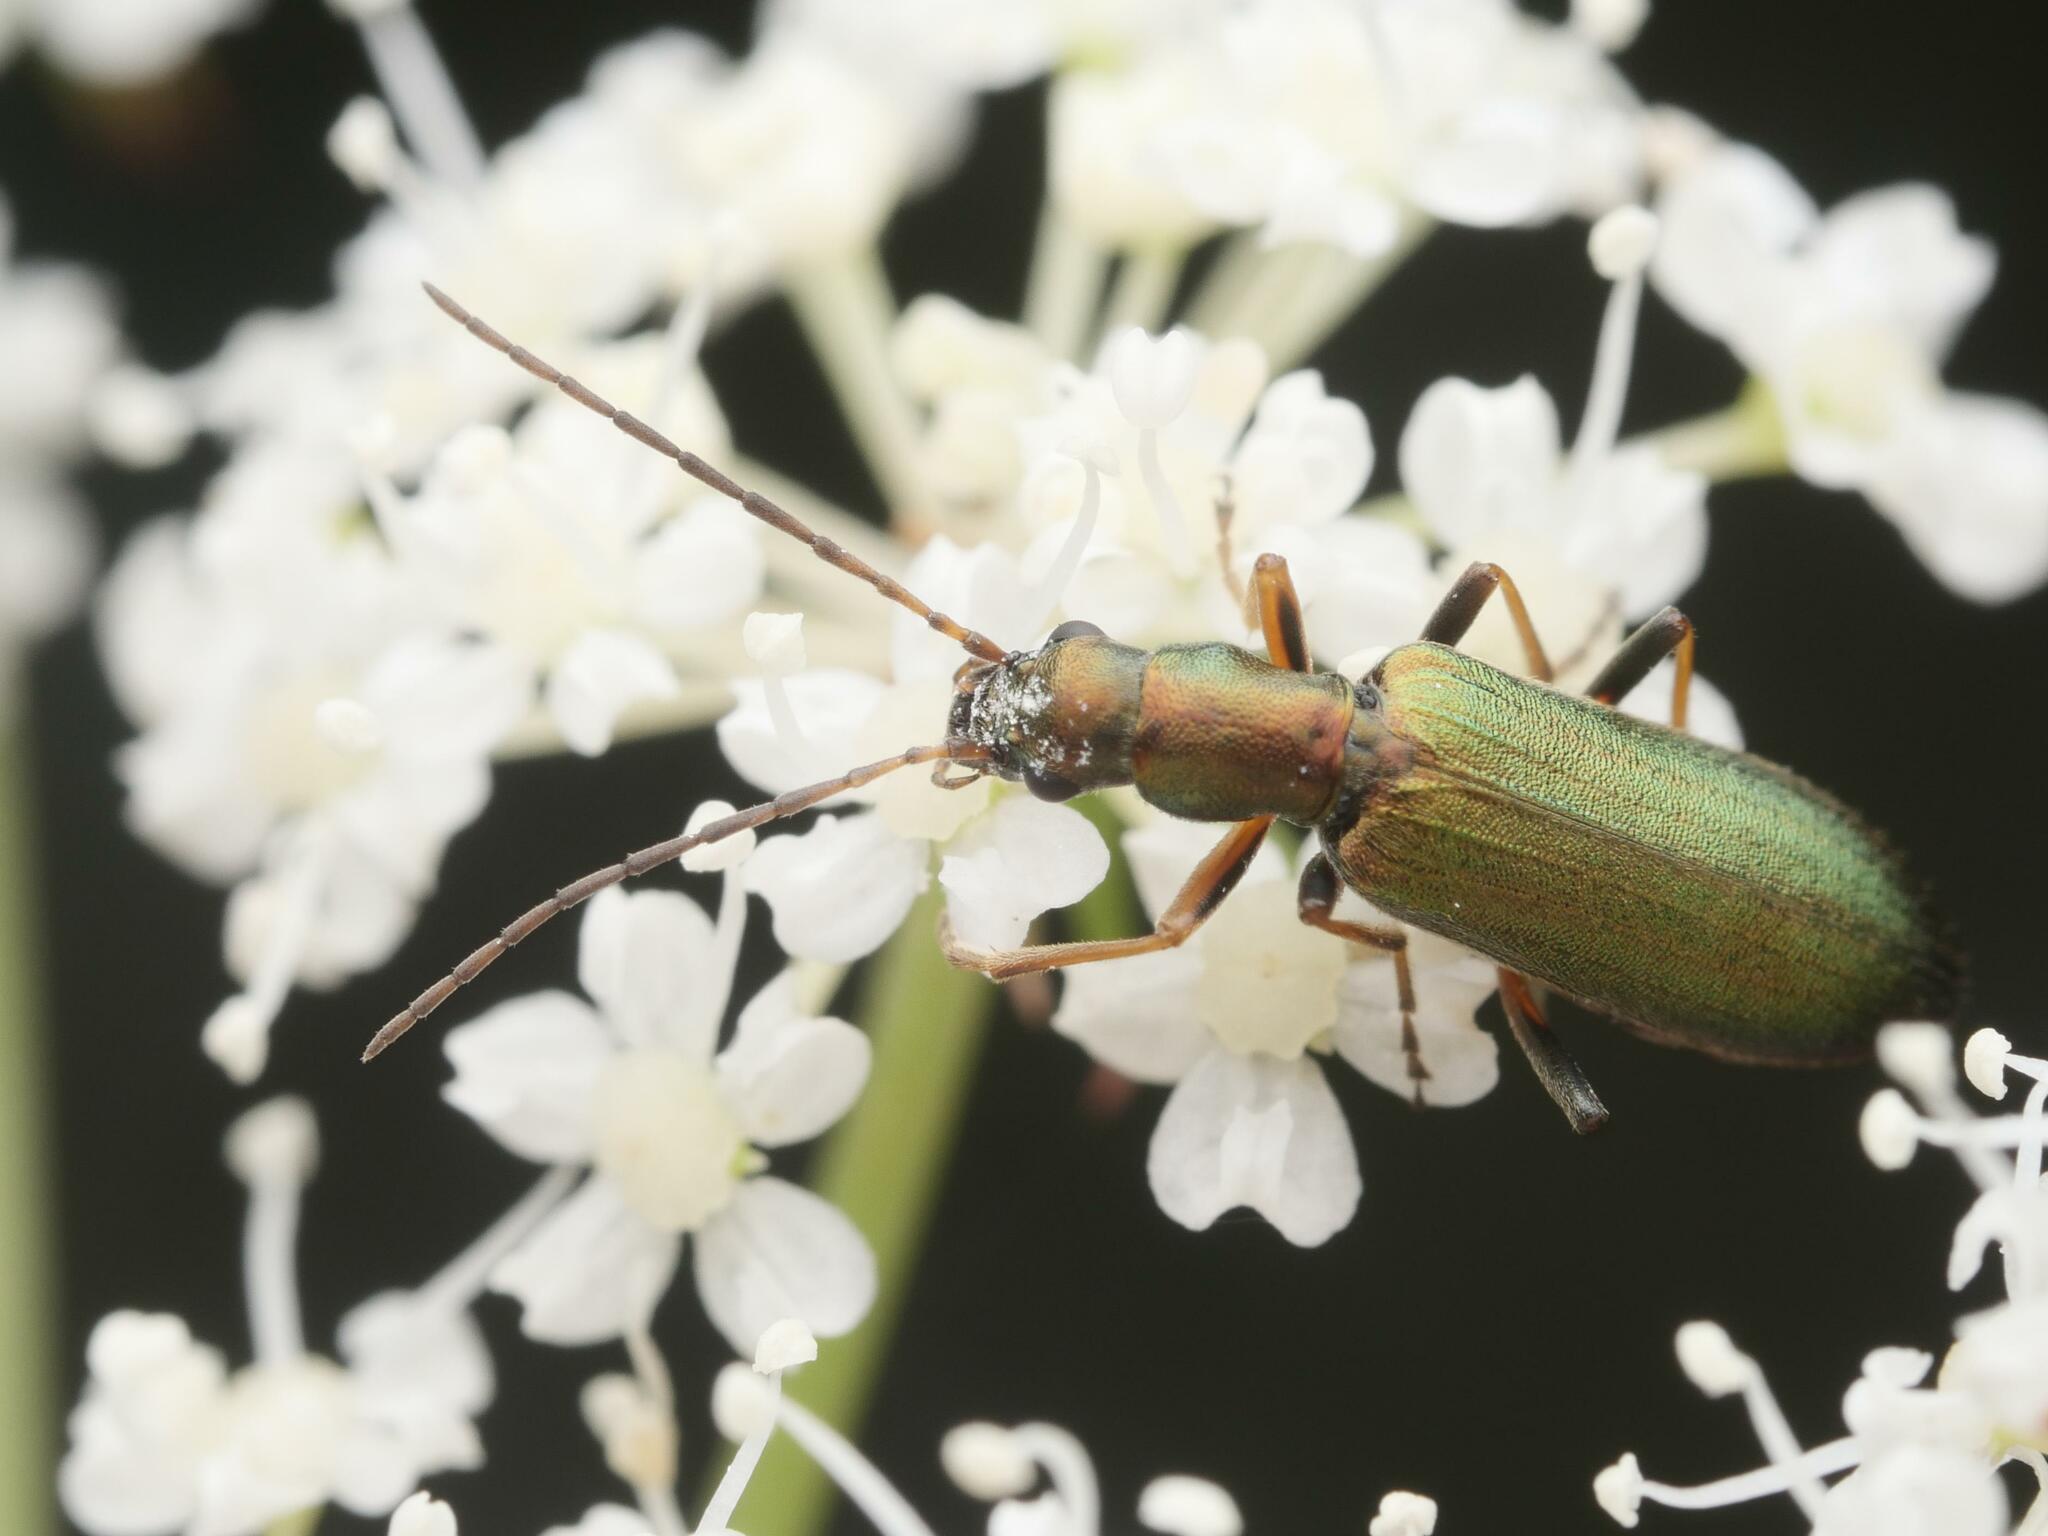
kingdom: Animalia
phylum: Arthropoda
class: Insecta
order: Coleoptera
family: Oedemeridae
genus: Chrysanthia
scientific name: Chrysanthia geniculata
